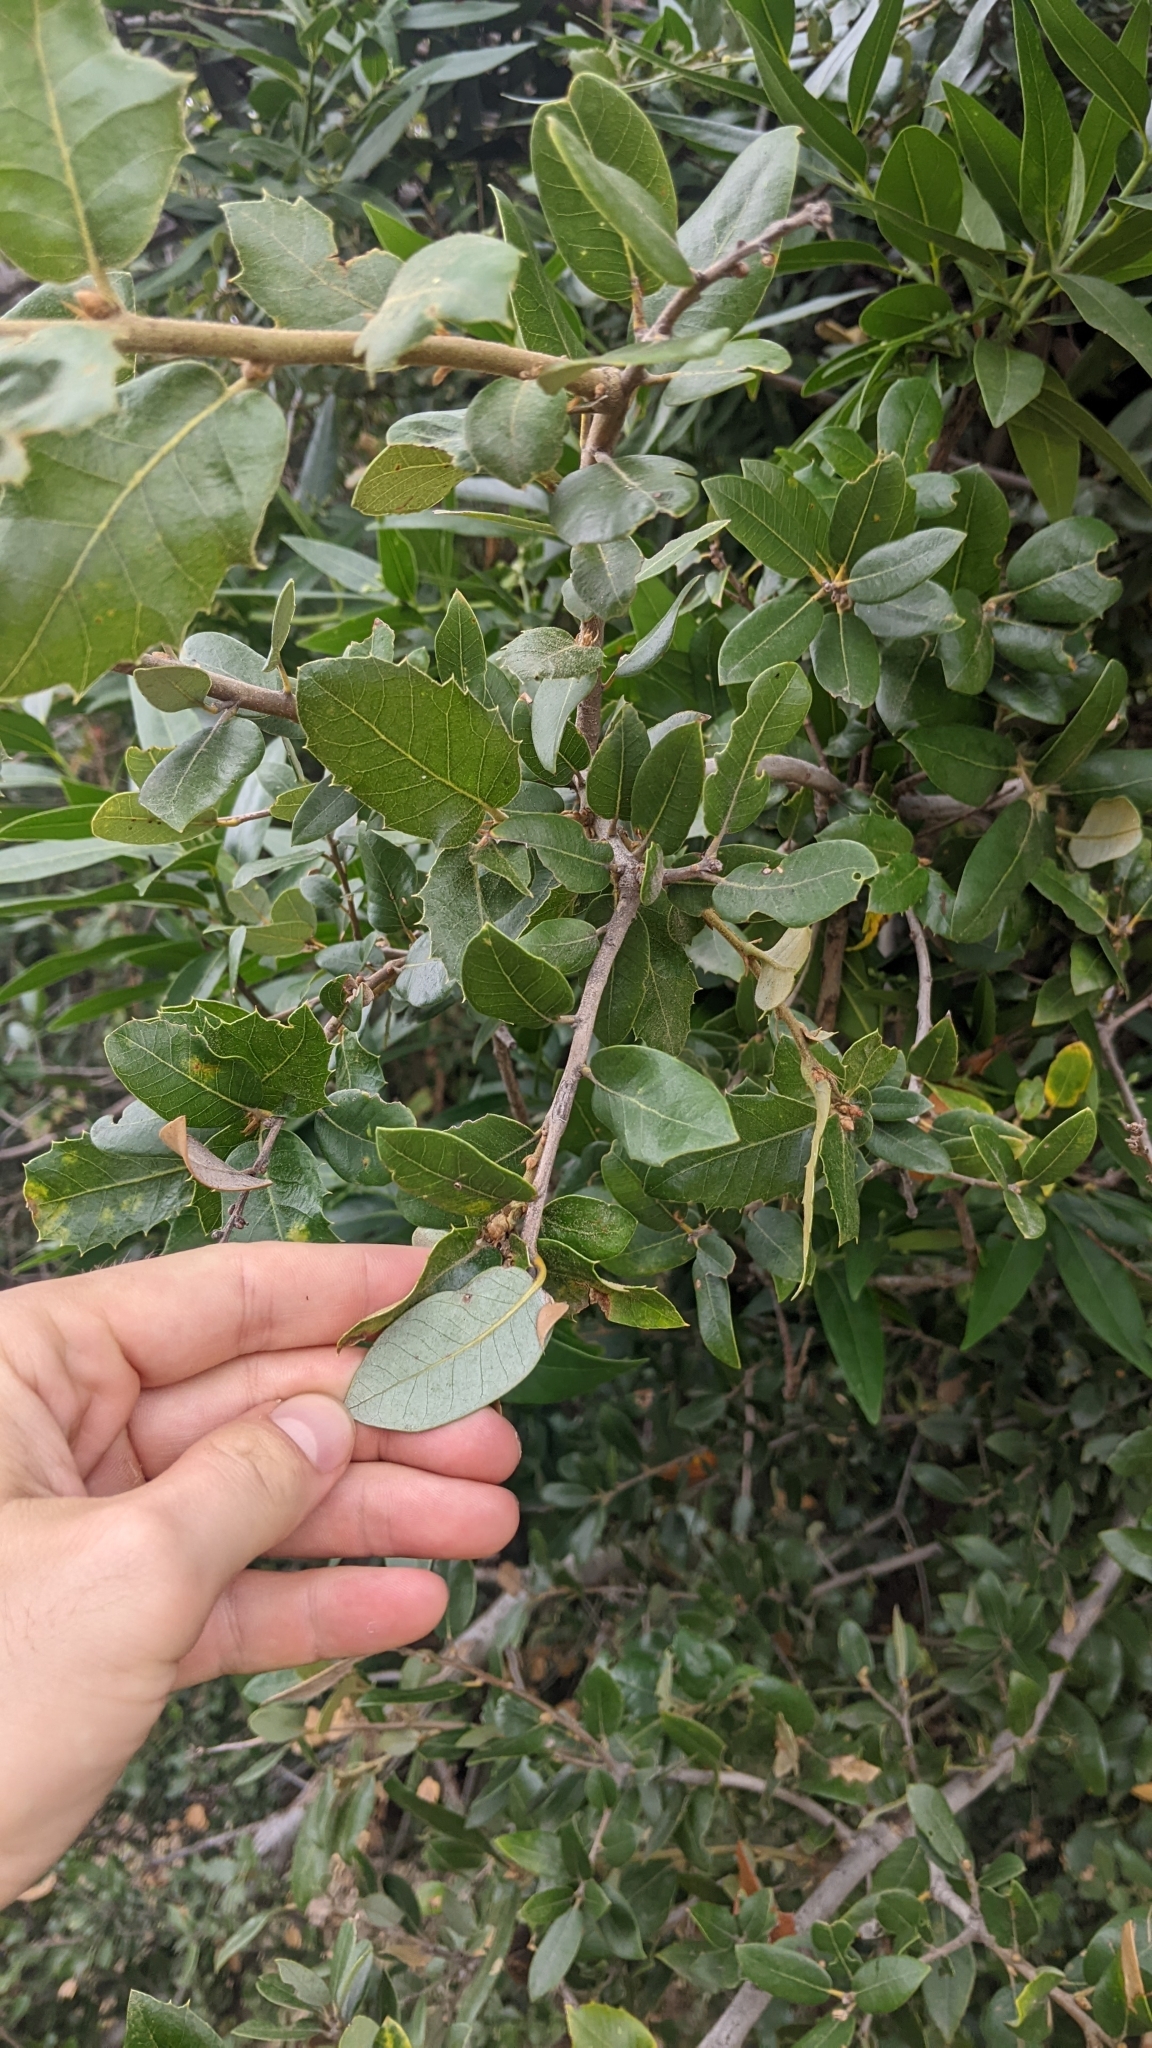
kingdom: Plantae
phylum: Tracheophyta
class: Magnoliopsida
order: Fagales
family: Fagaceae
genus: Quercus
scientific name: Quercus chrysolepis
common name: Canyon live oak
